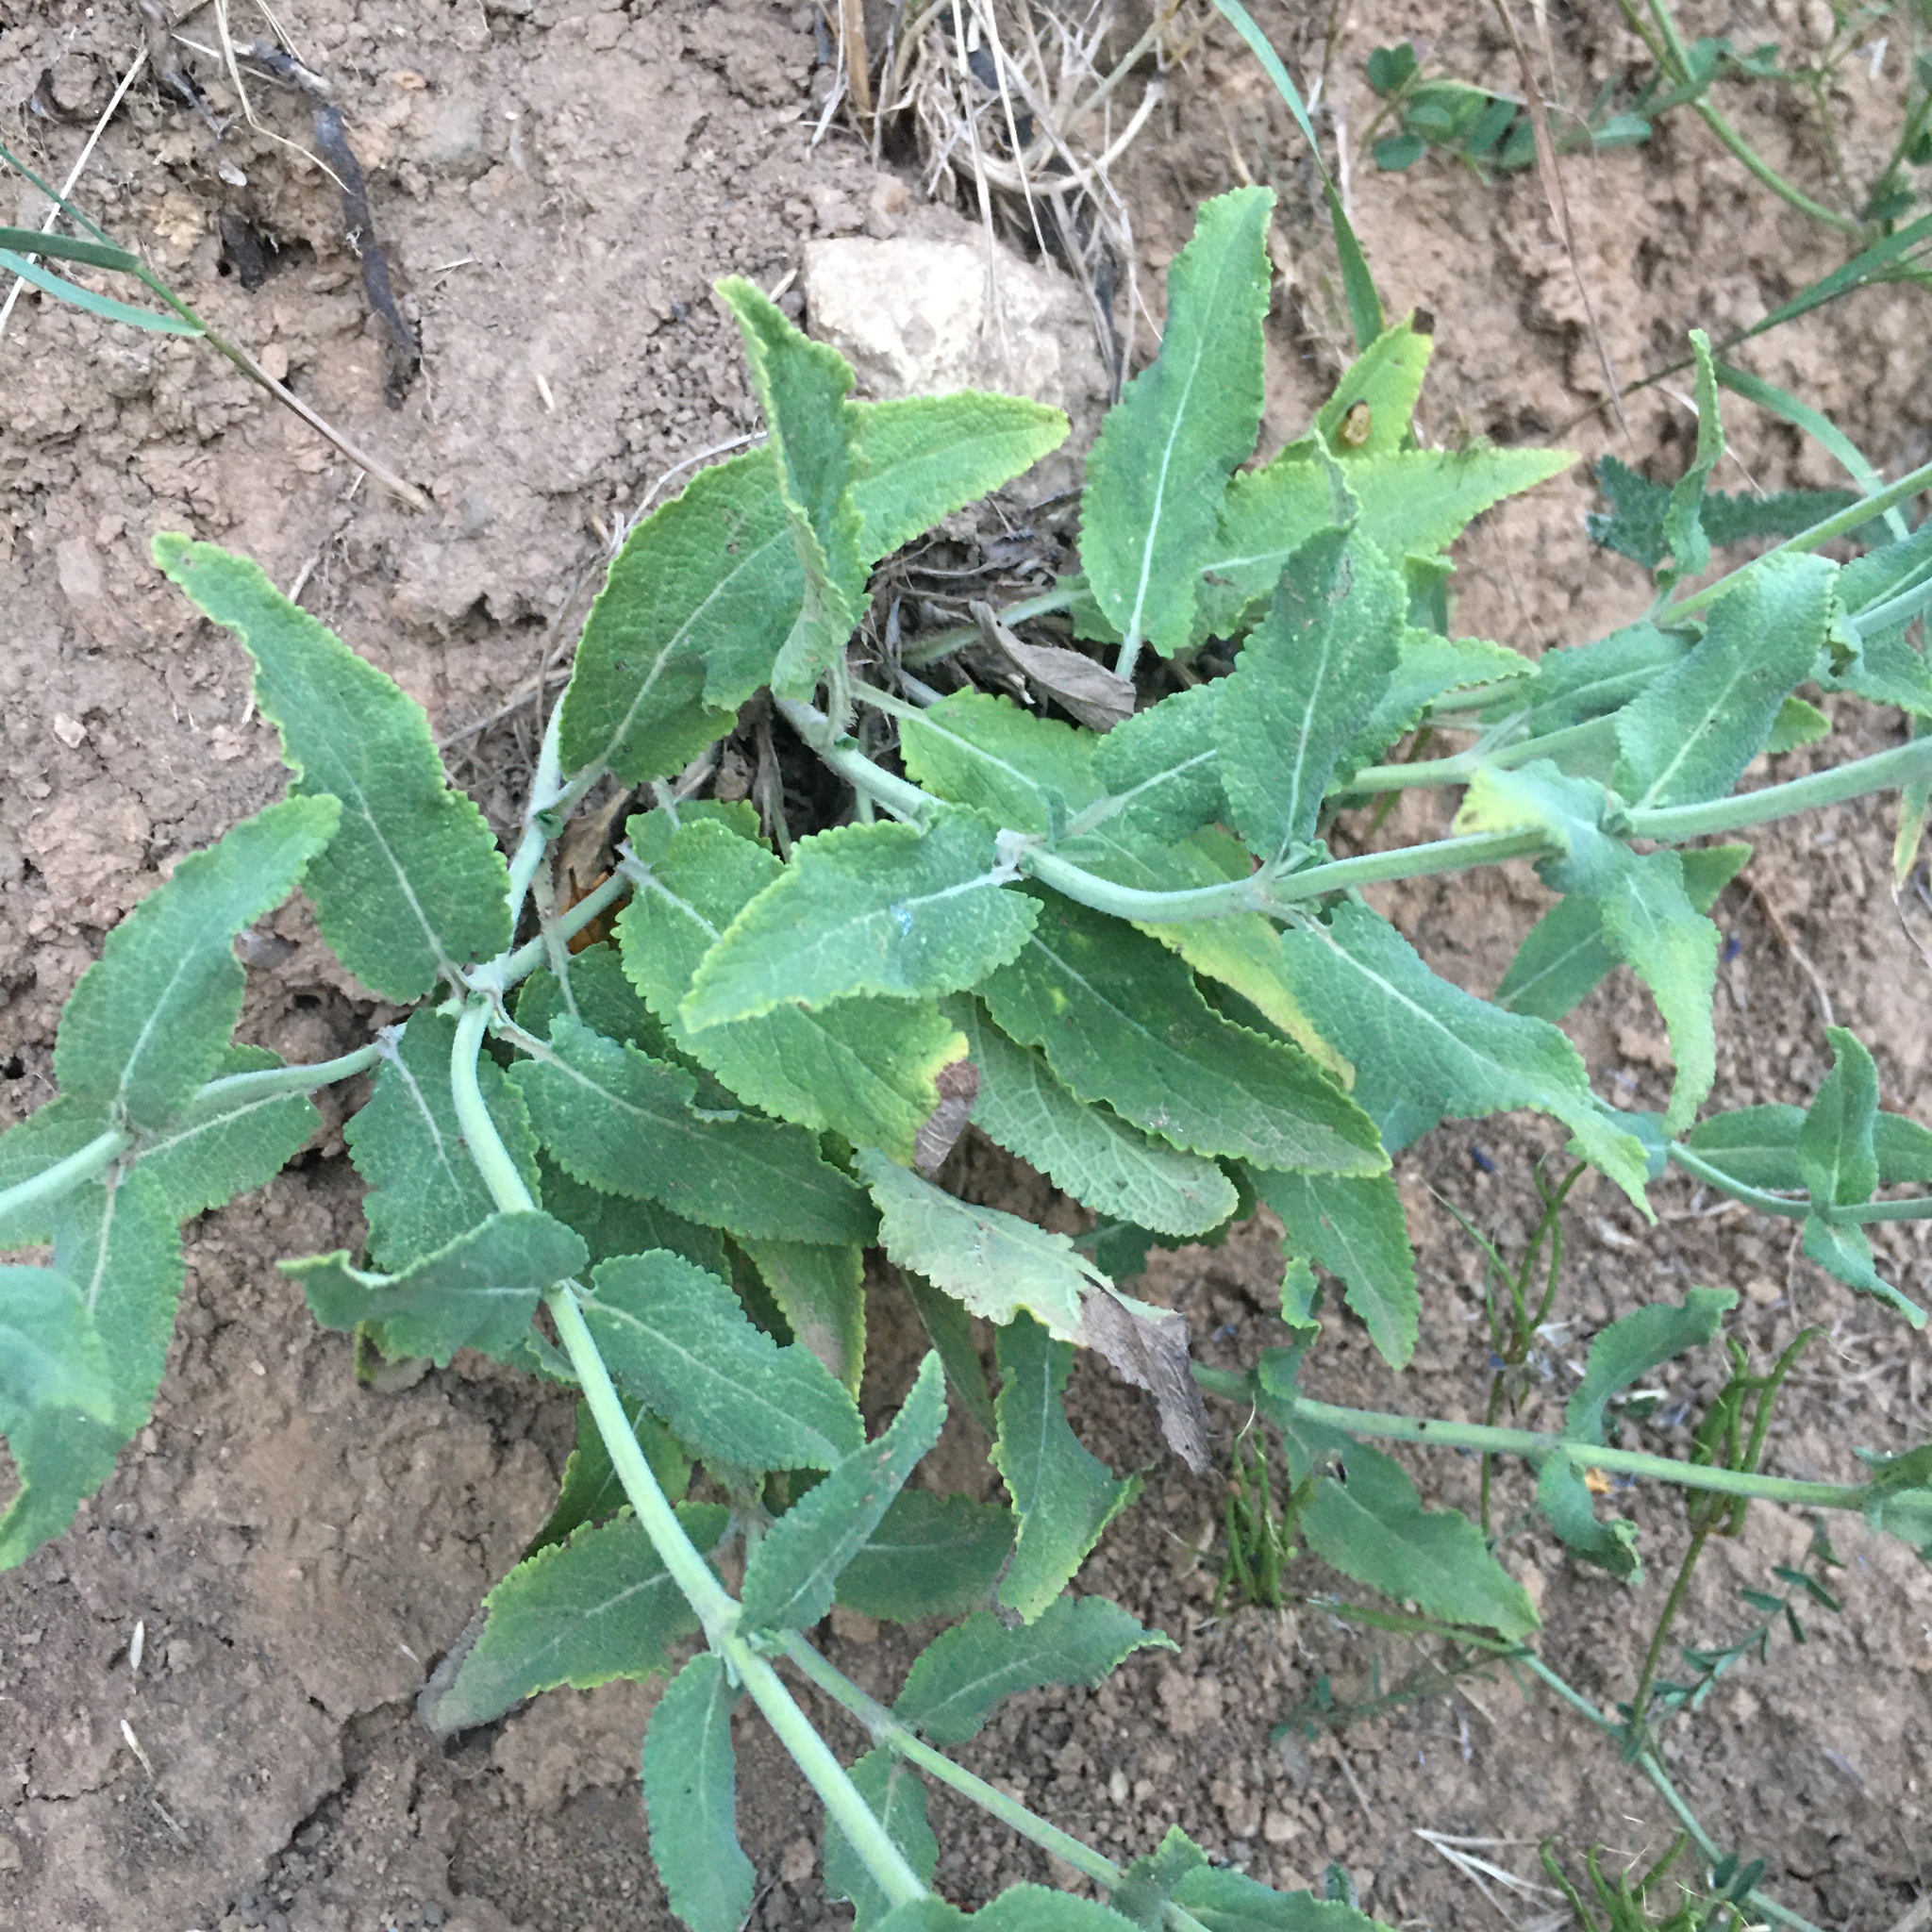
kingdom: Plantae
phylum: Tracheophyta
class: Magnoliopsida
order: Lamiales
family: Lamiaceae
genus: Salvia
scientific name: Salvia nemorosa
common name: Balkan clary
